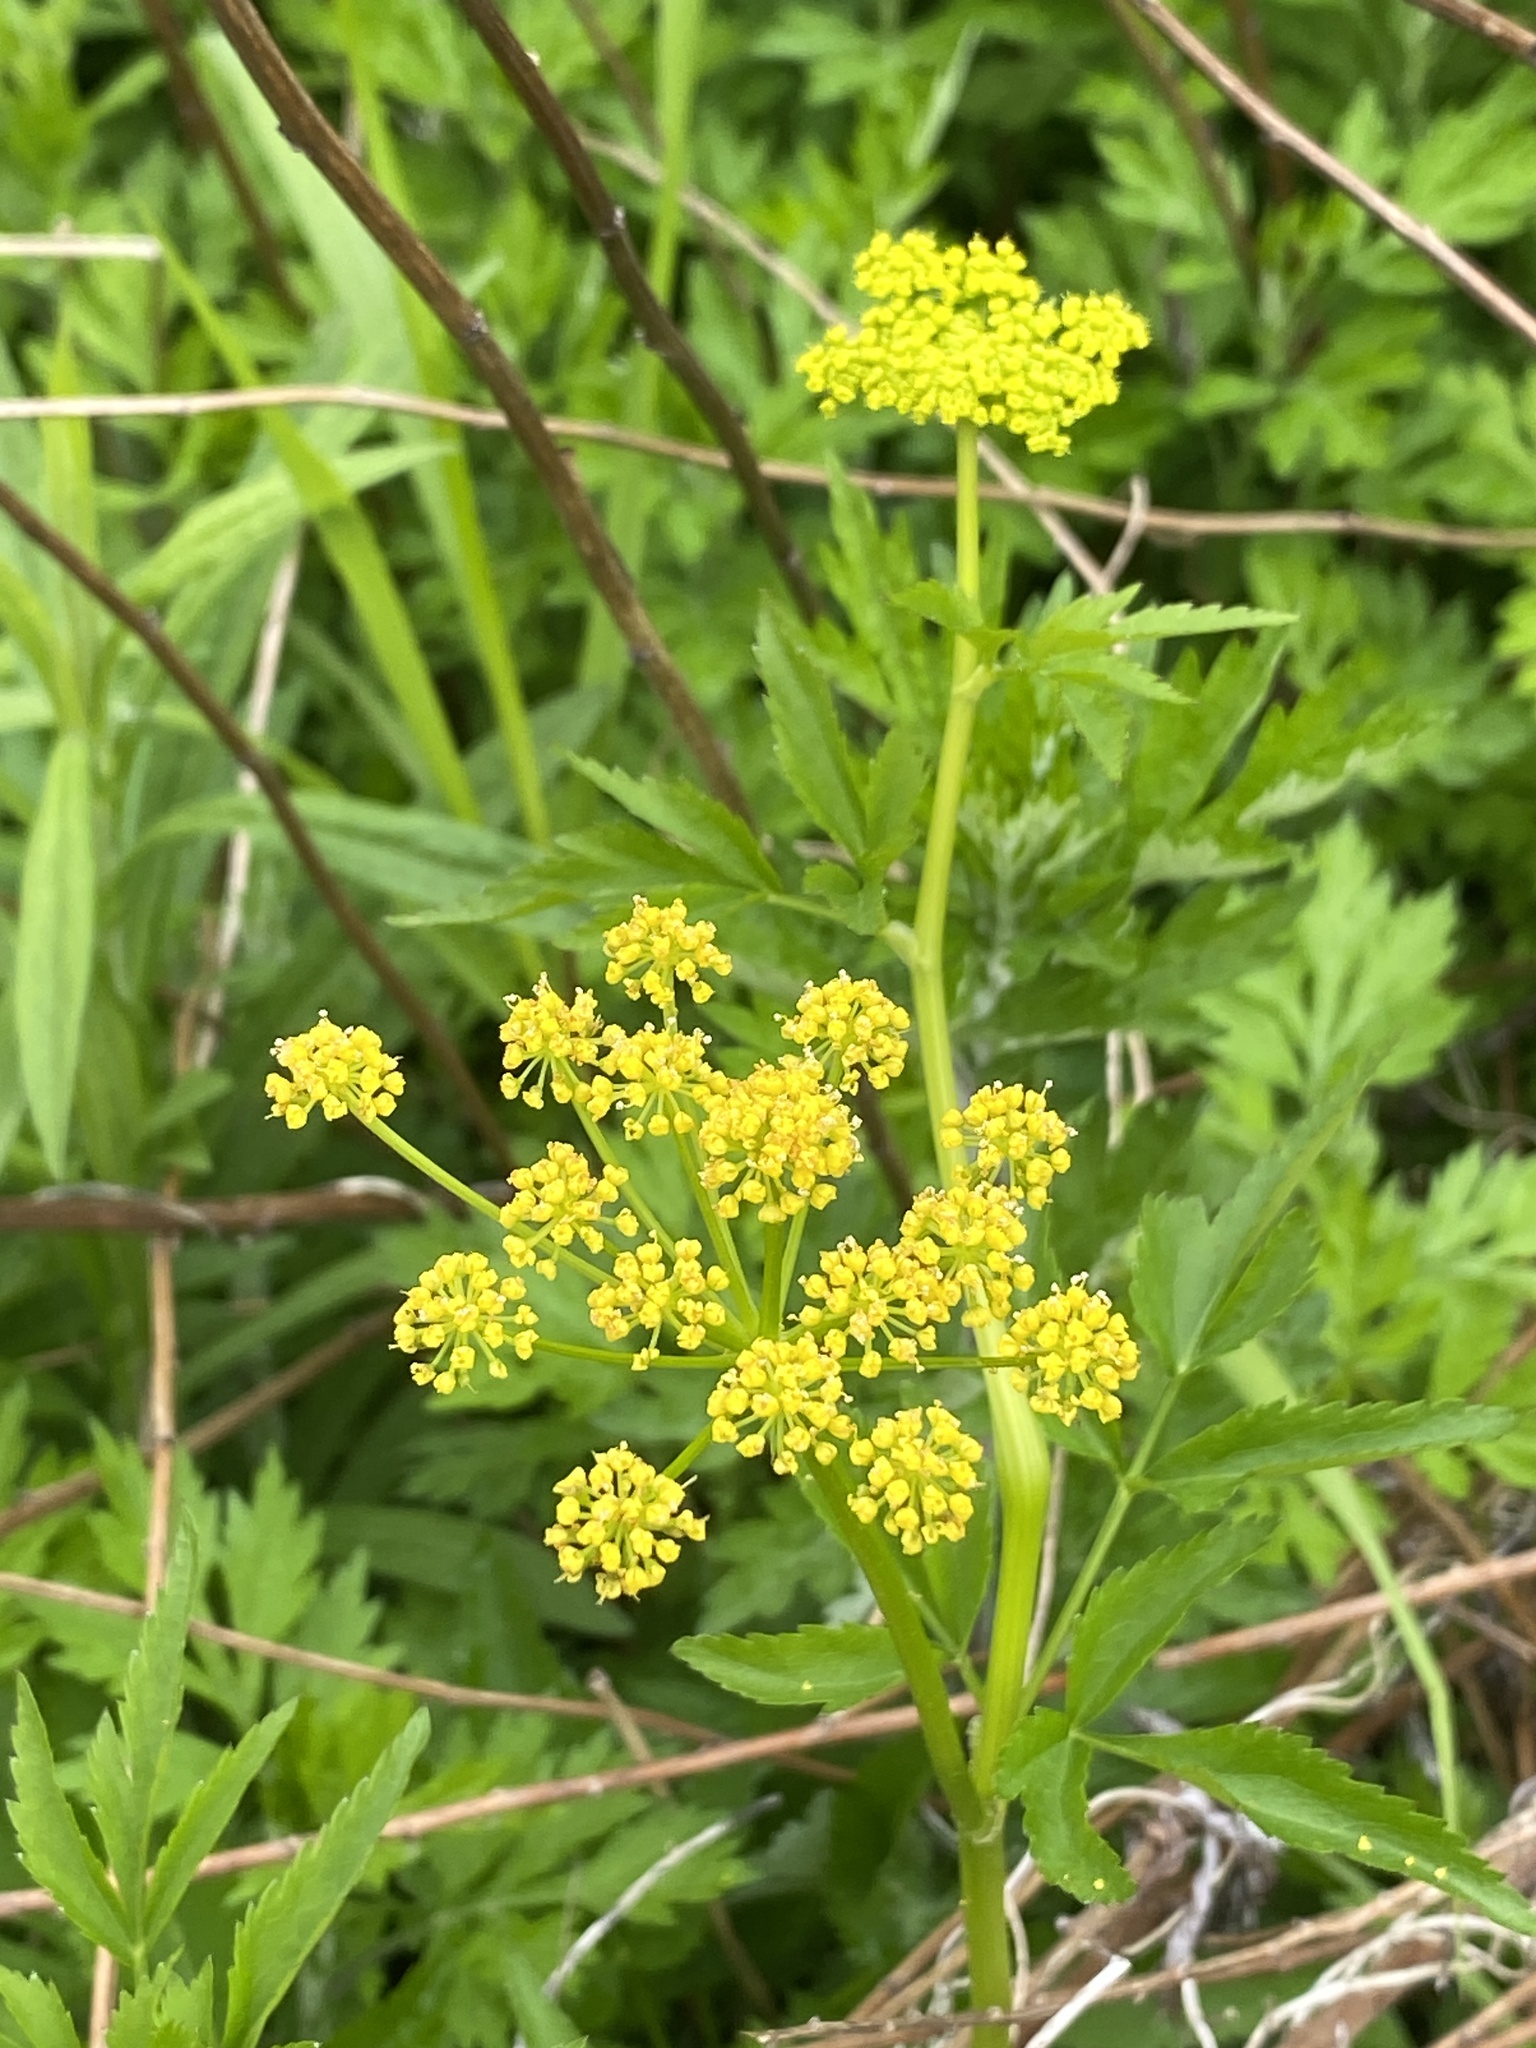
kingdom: Plantae
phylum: Tracheophyta
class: Magnoliopsida
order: Apiales
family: Apiaceae
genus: Zizia
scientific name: Zizia aurea
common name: Golden alexanders
